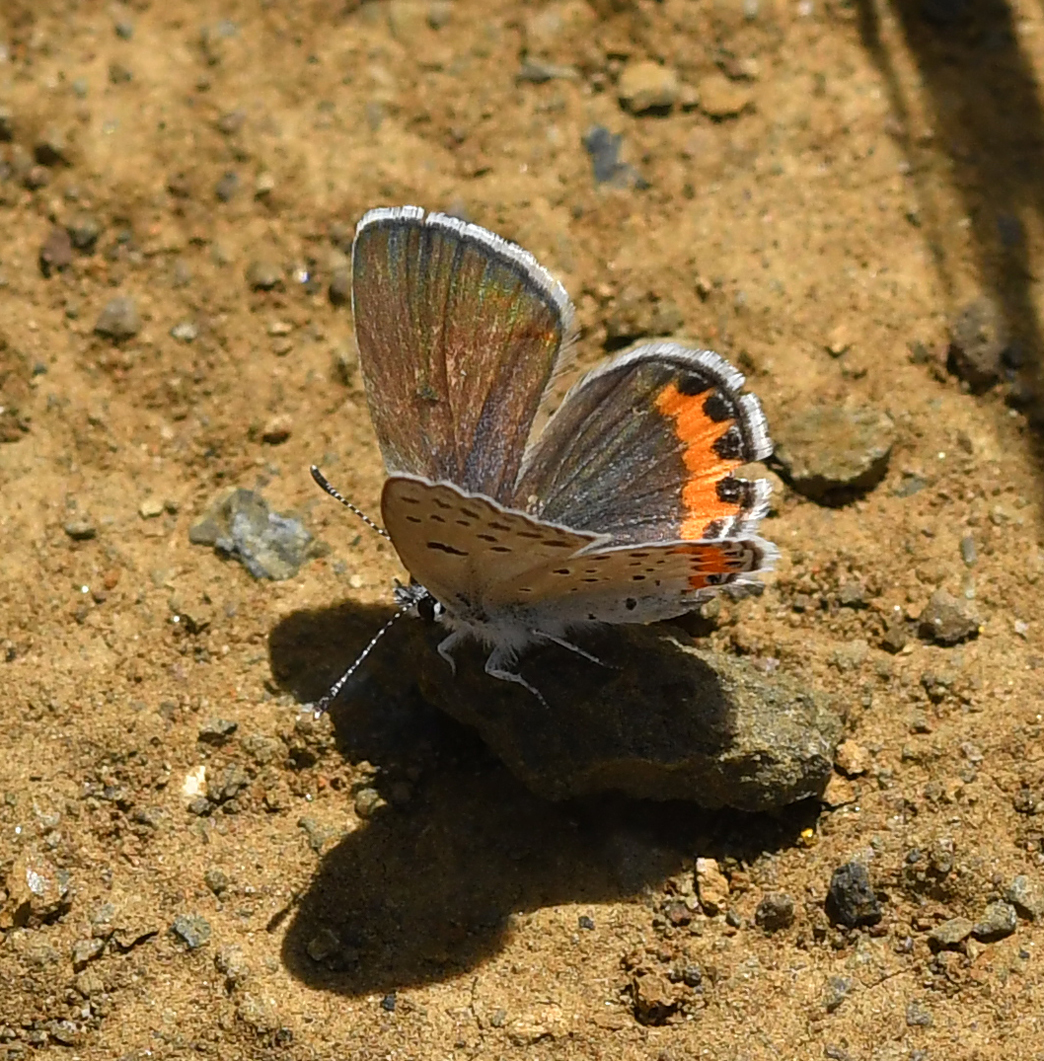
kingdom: Animalia
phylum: Arthropoda
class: Insecta
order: Lepidoptera
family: Lycaenidae
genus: Icaricia
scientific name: Icaricia acmon
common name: Acmon blue
